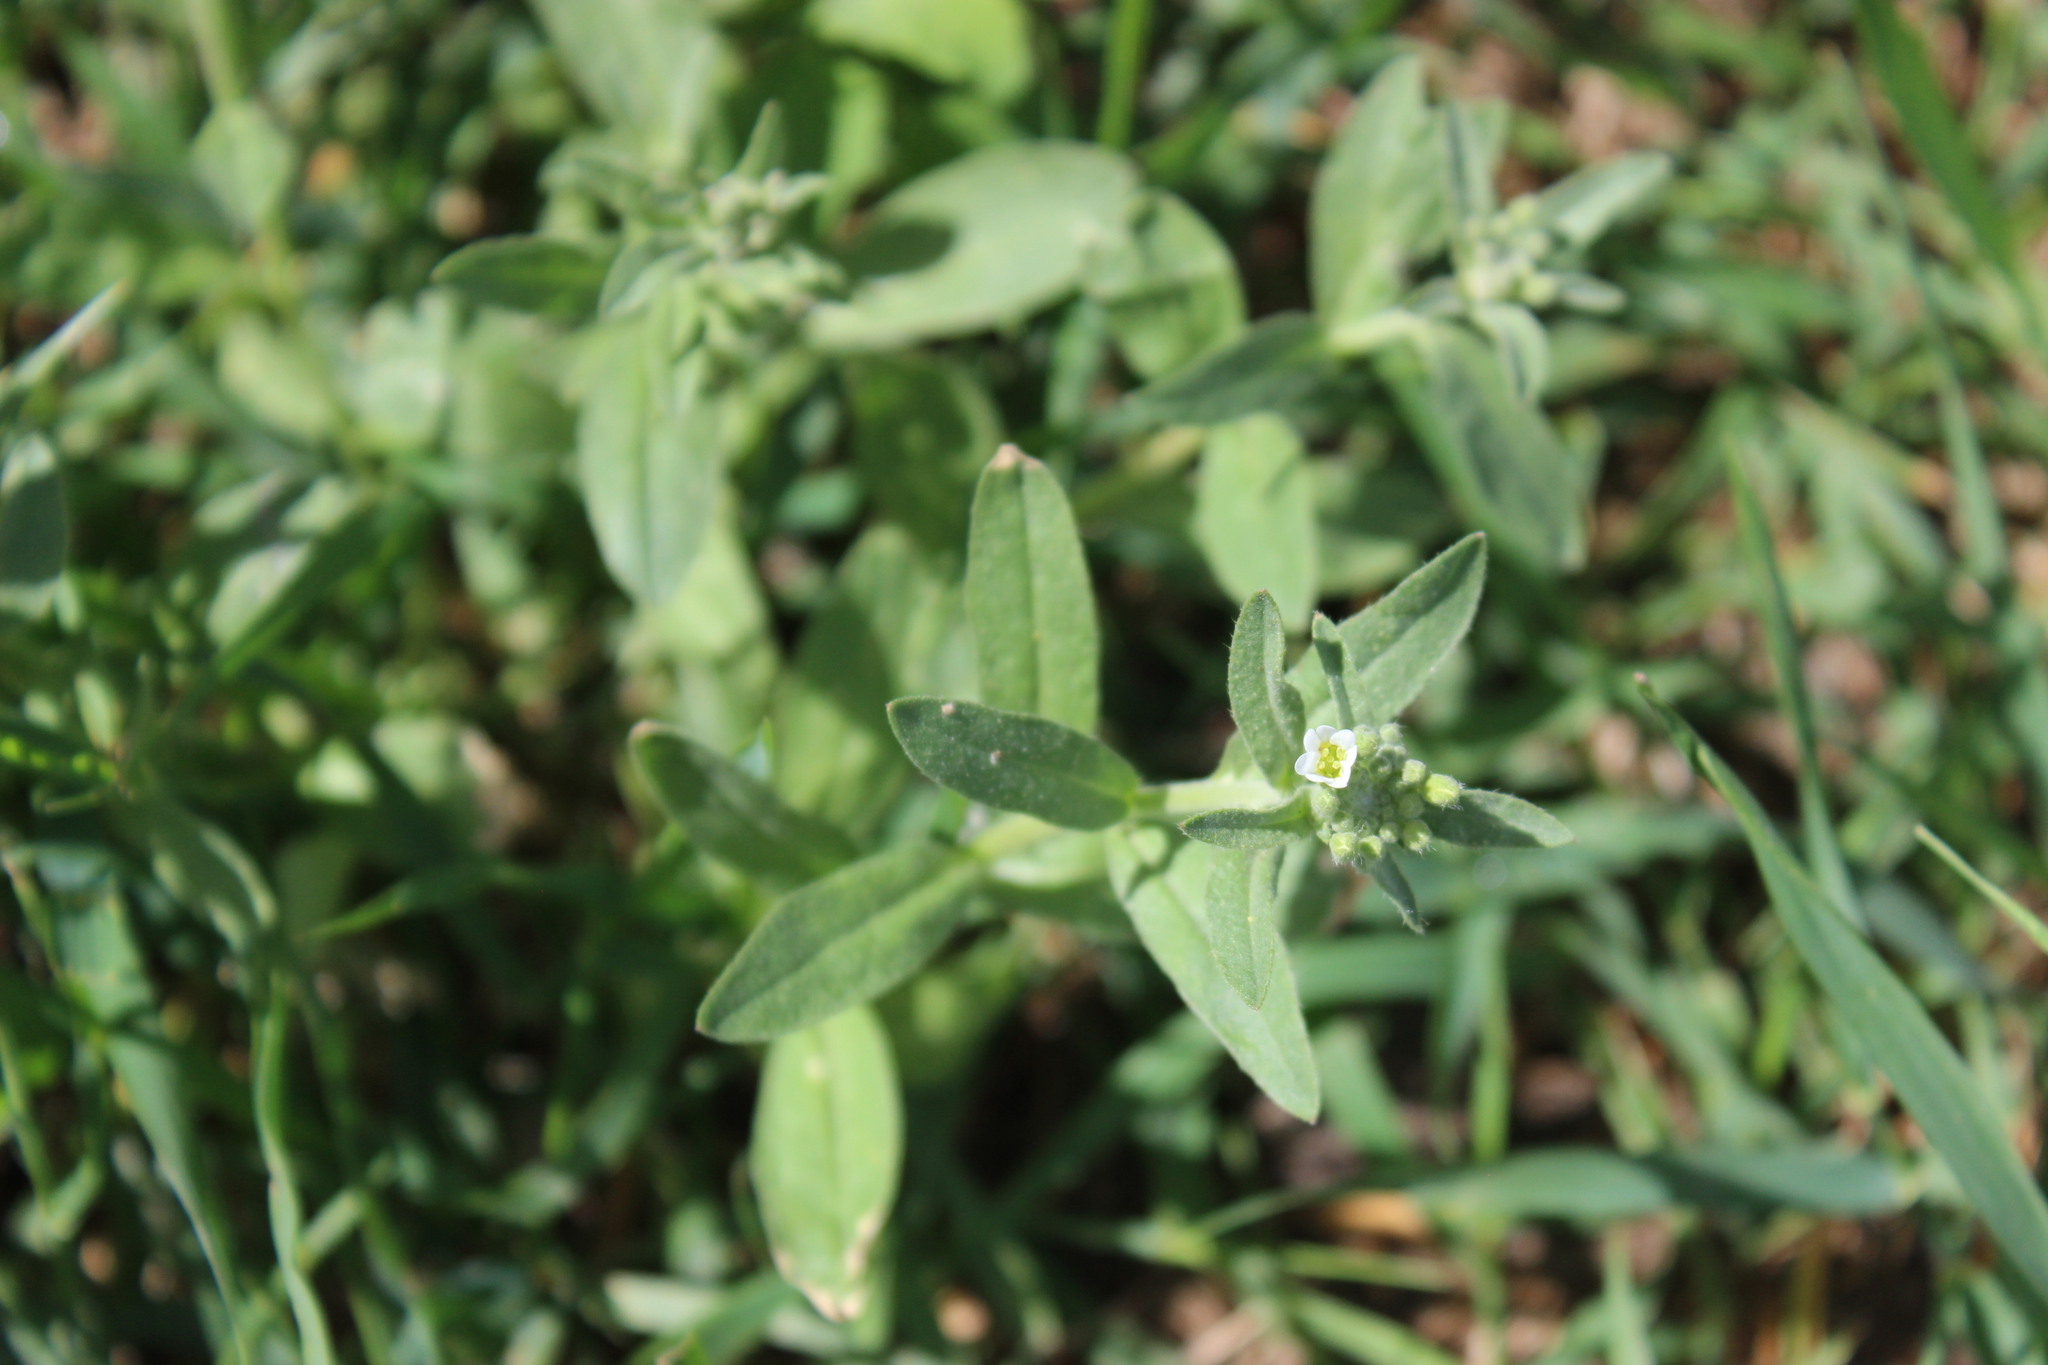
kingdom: Plantae
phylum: Tracheophyta
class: Magnoliopsida
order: Brassicales
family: Brassicaceae
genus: Berteroa
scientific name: Berteroa incana
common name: Hoary alison
